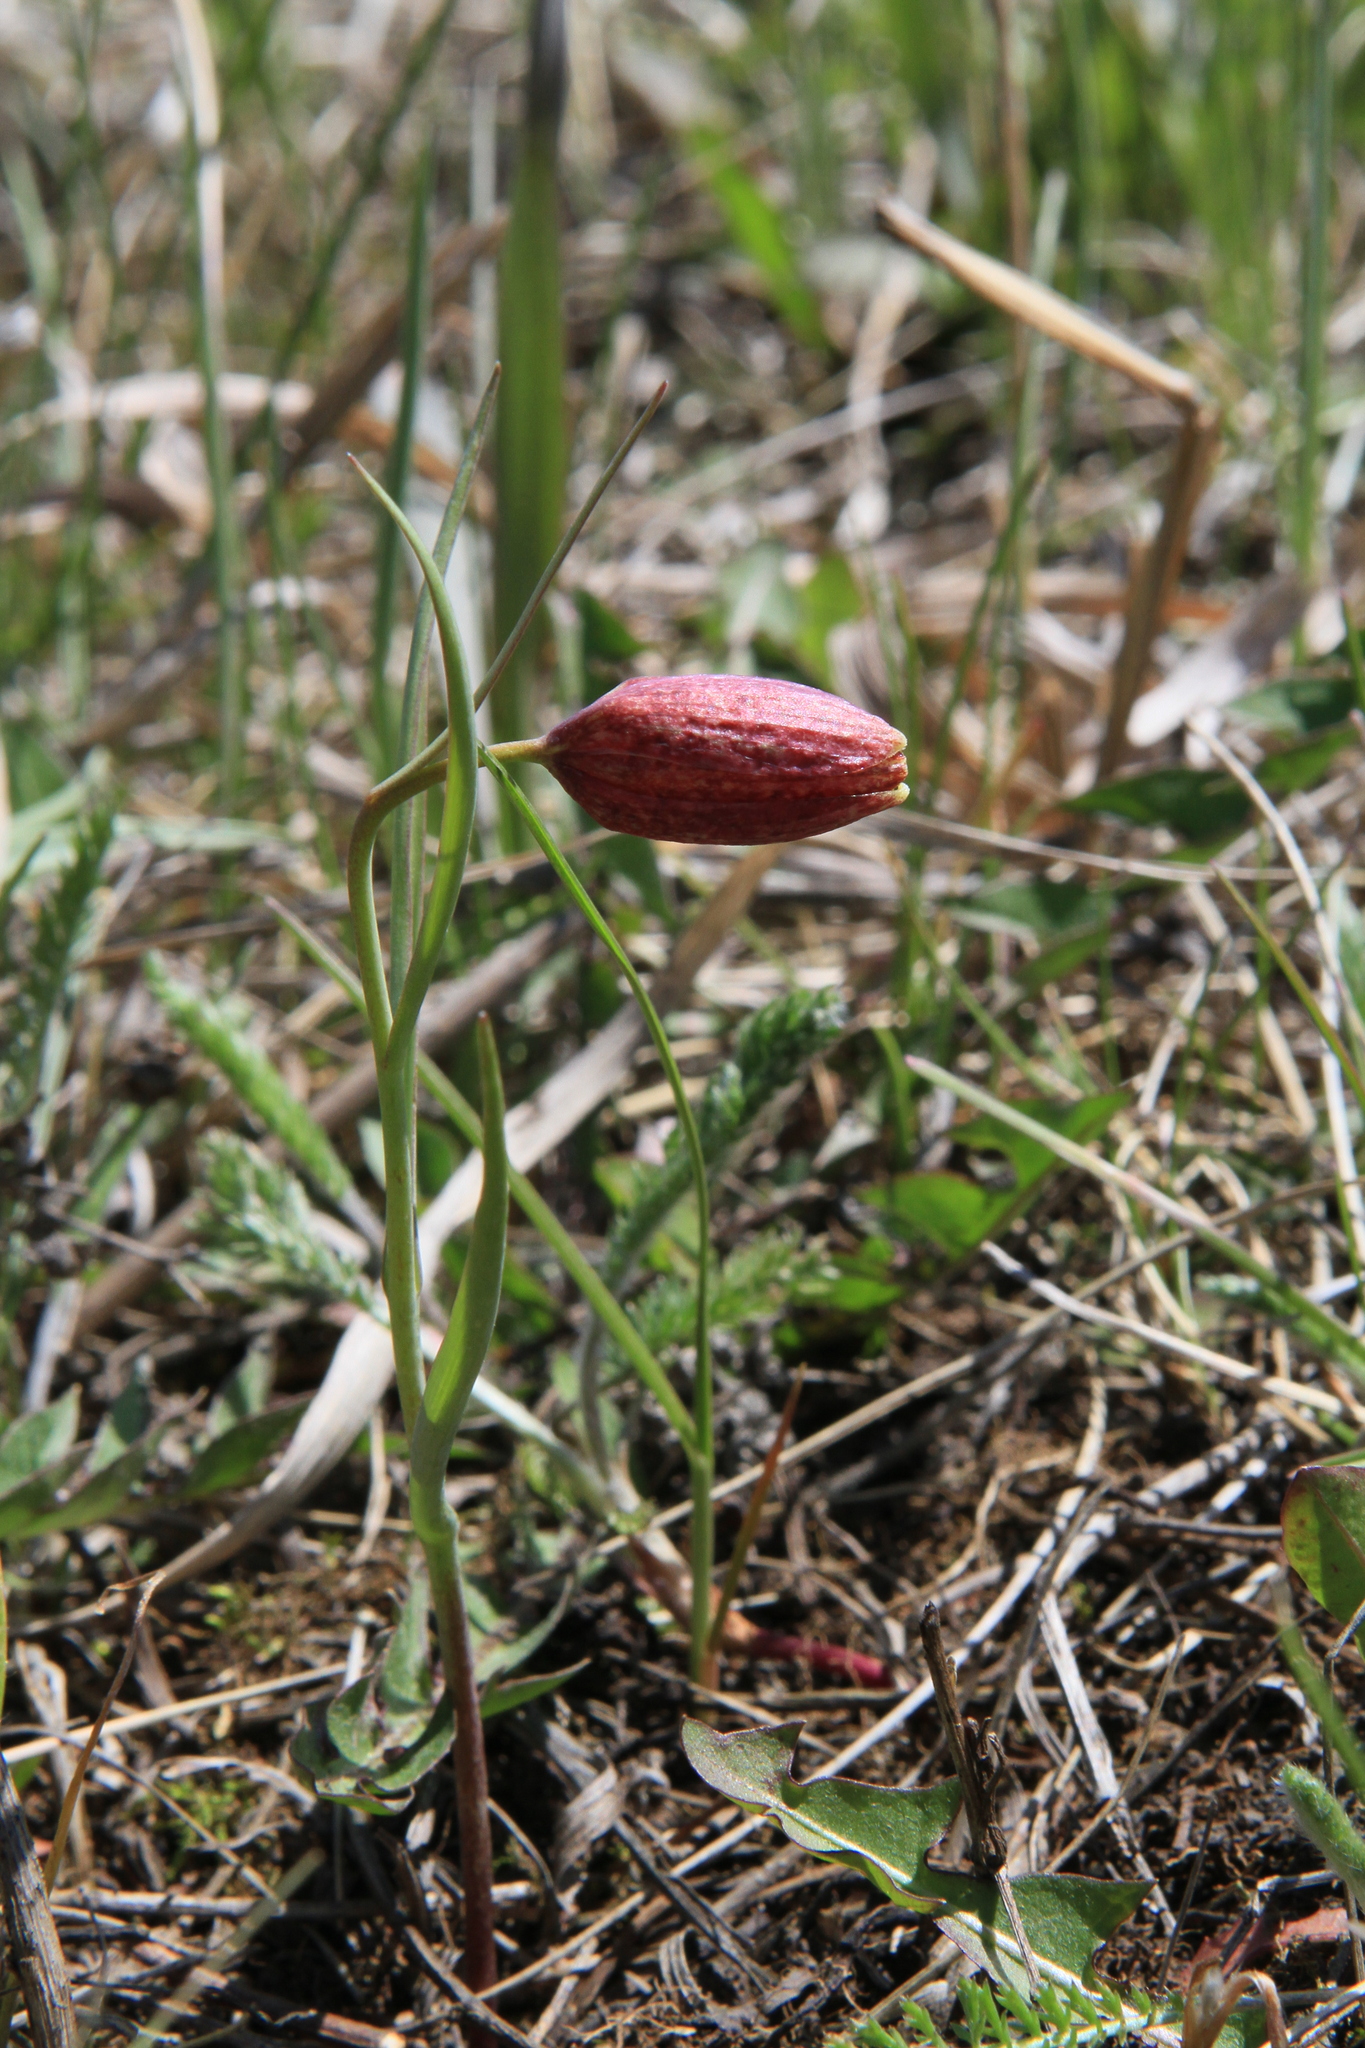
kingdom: Plantae
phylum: Tracheophyta
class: Liliopsida
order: Liliales
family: Liliaceae
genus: Fritillaria
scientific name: Fritillaria meleagroides
